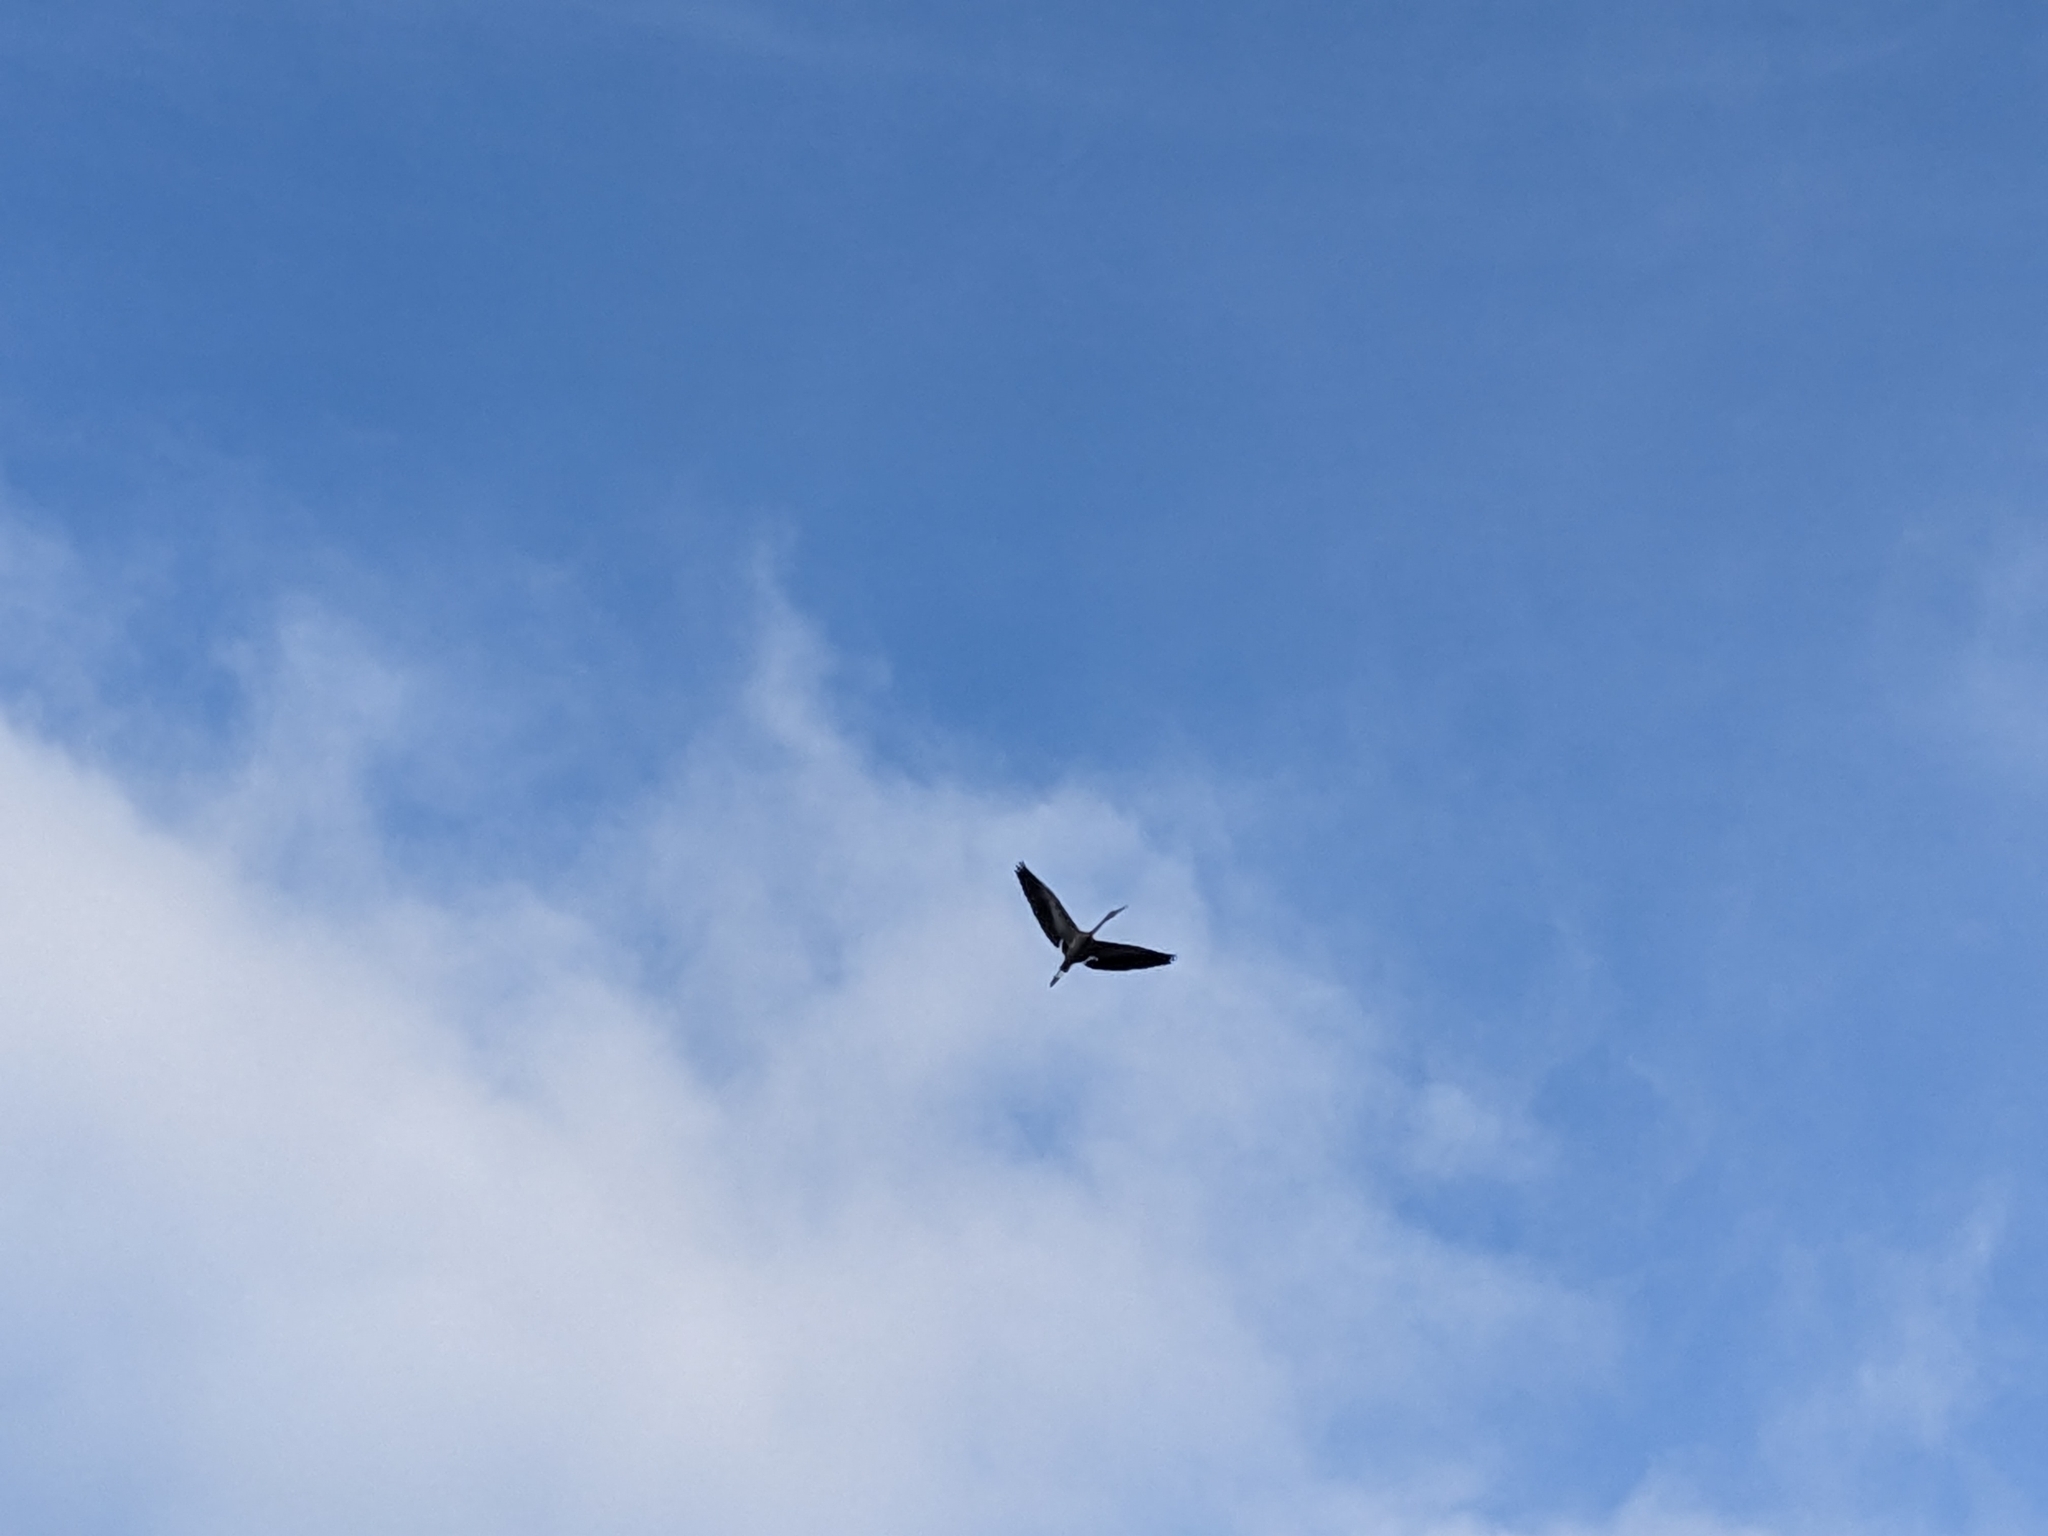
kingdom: Animalia
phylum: Chordata
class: Aves
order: Pelecaniformes
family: Ardeidae
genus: Egretta
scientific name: Egretta novaehollandiae
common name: White-faced heron
